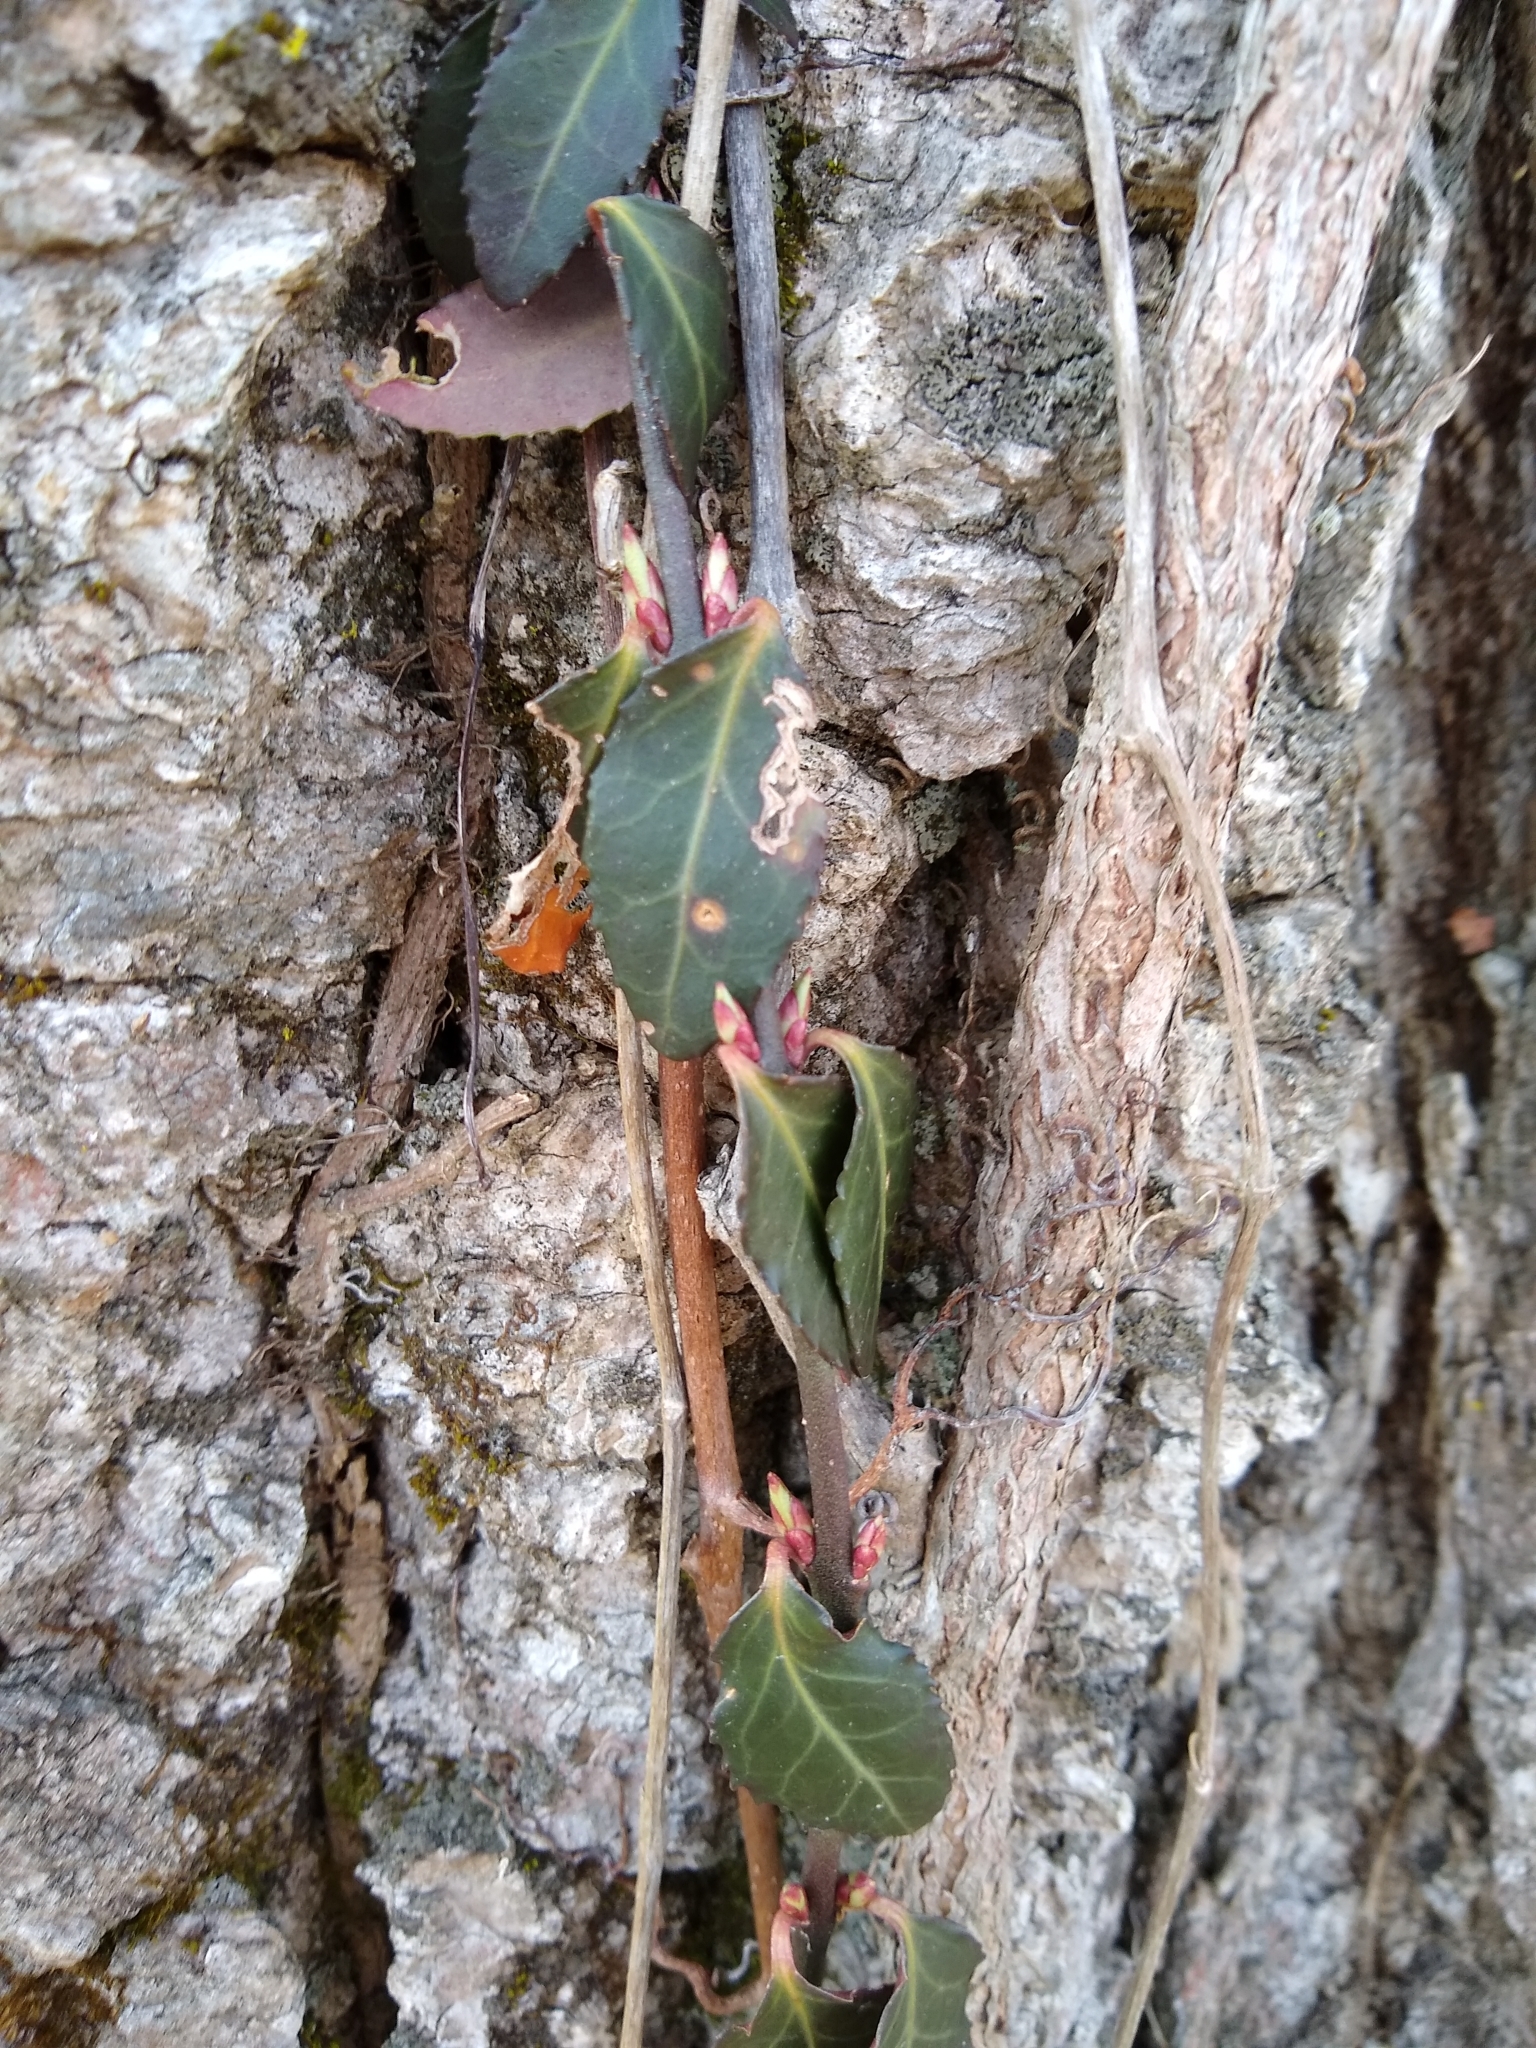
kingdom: Plantae
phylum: Tracheophyta
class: Magnoliopsida
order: Celastrales
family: Celastraceae
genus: Euonymus
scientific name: Euonymus fortunei
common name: Climbing euonymus
